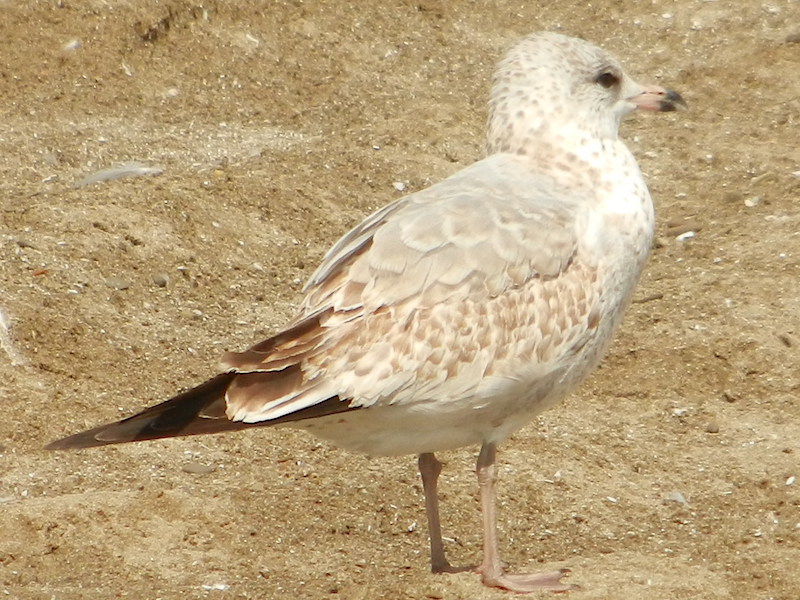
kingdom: Animalia
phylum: Chordata
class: Aves
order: Charadriiformes
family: Laridae
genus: Larus
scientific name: Larus delawarensis
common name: Ring-billed gull
